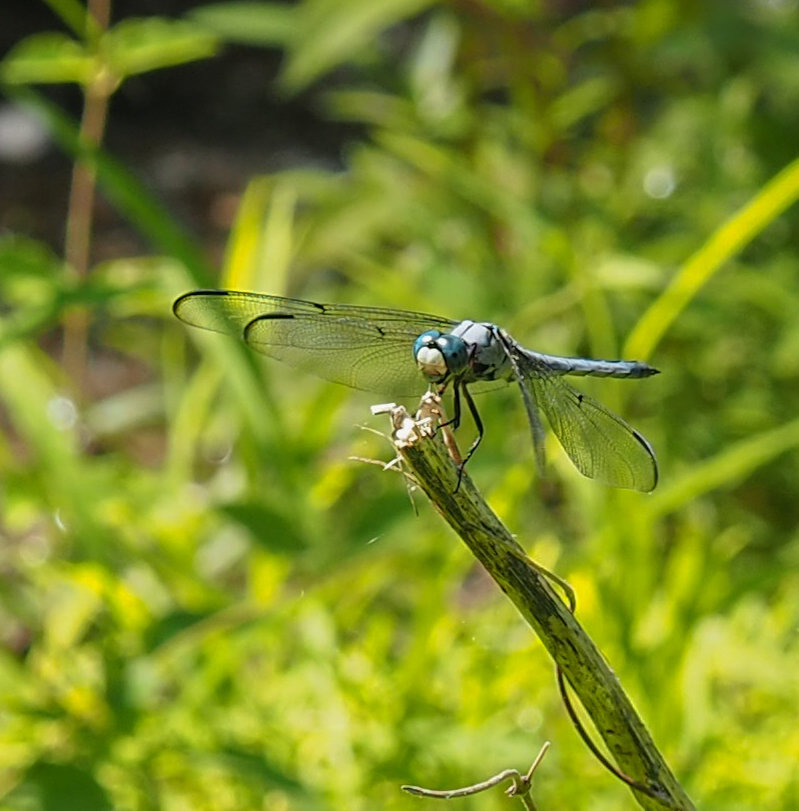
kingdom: Animalia
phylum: Arthropoda
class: Insecta
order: Odonata
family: Libellulidae
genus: Libellula
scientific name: Libellula vibrans
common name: Great blue skimmer
